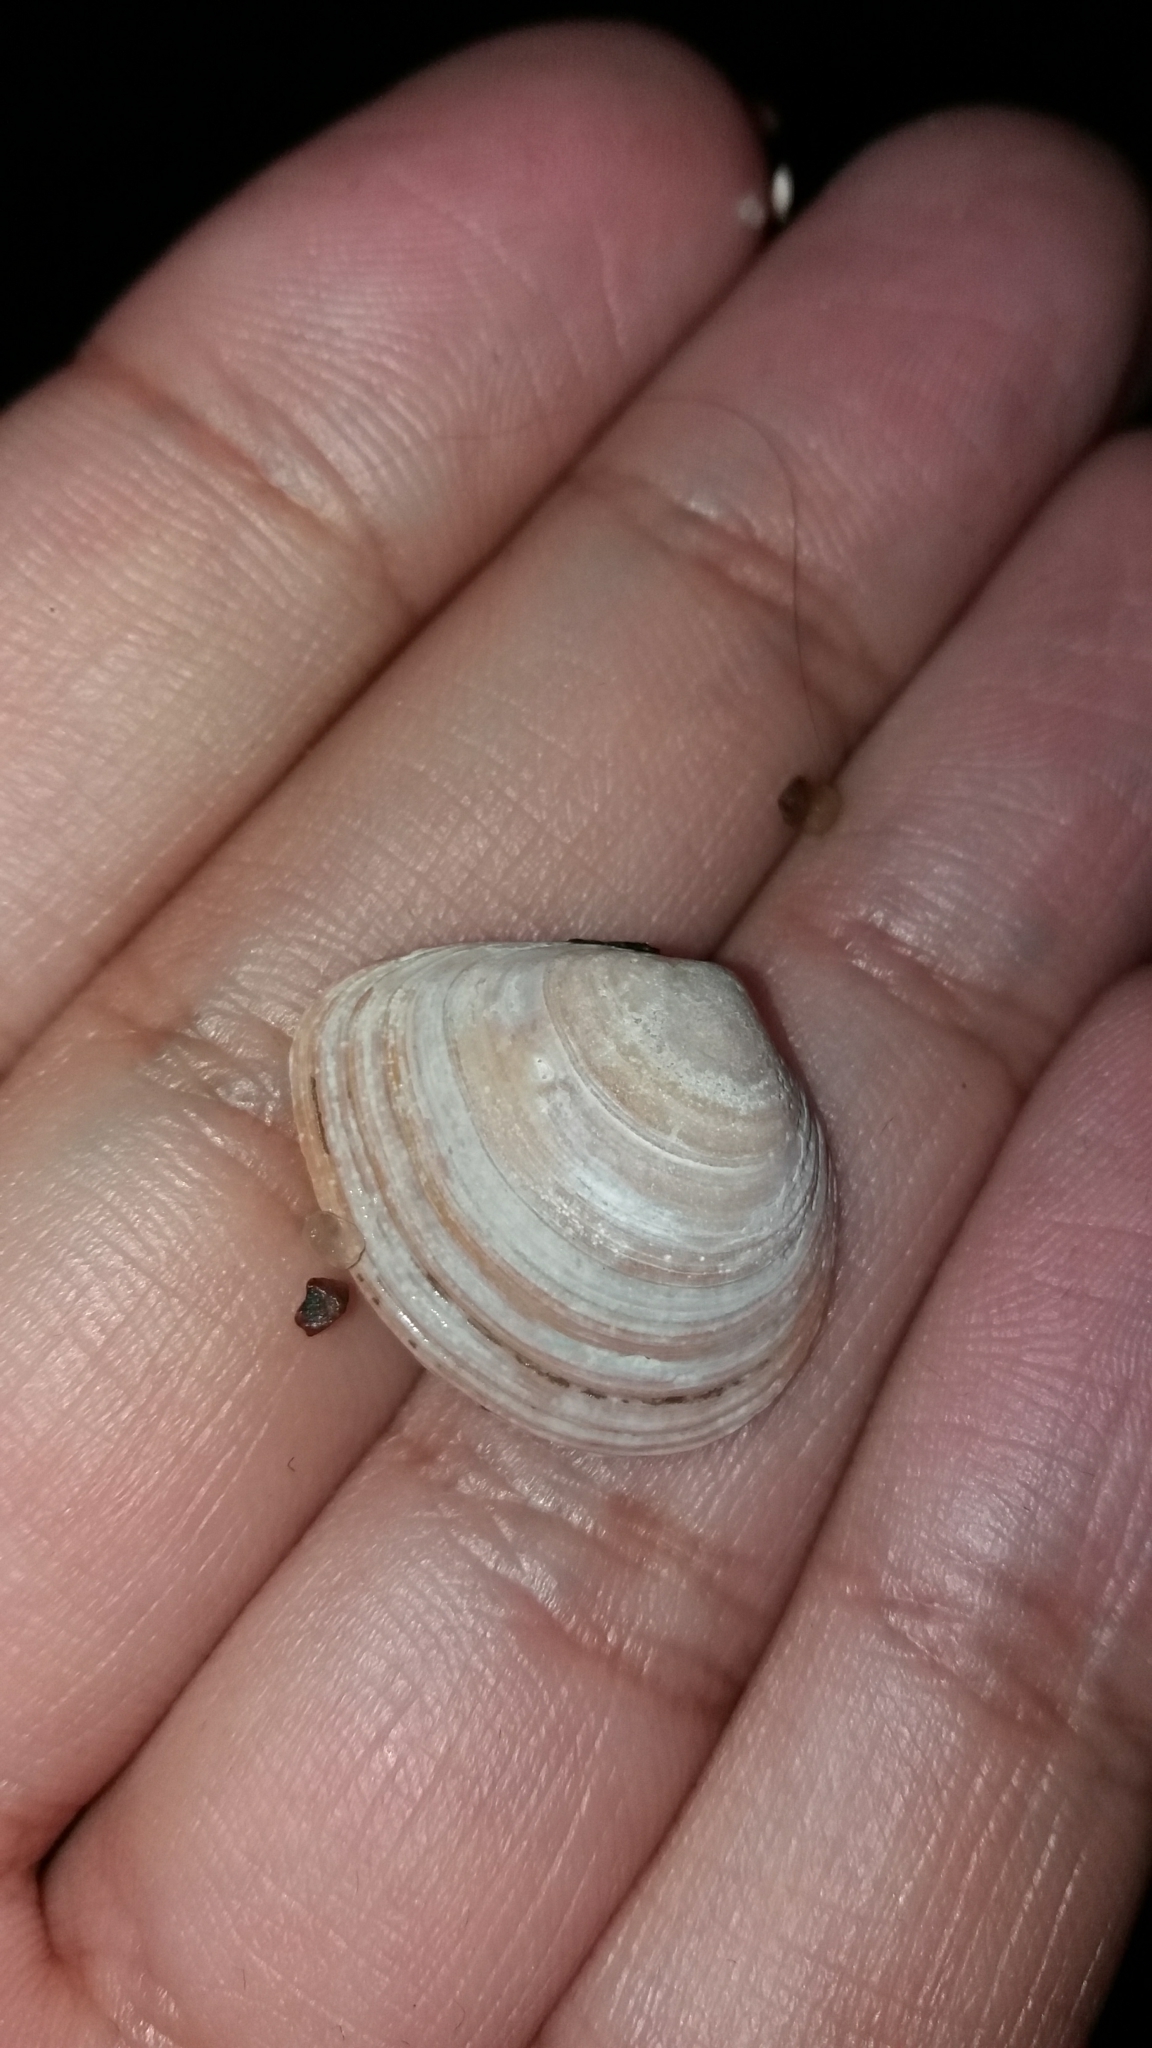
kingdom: Animalia
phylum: Mollusca
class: Bivalvia
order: Cardiida
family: Tellinidae
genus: Macoma
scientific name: Macoma balthica
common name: Baltic tellin
